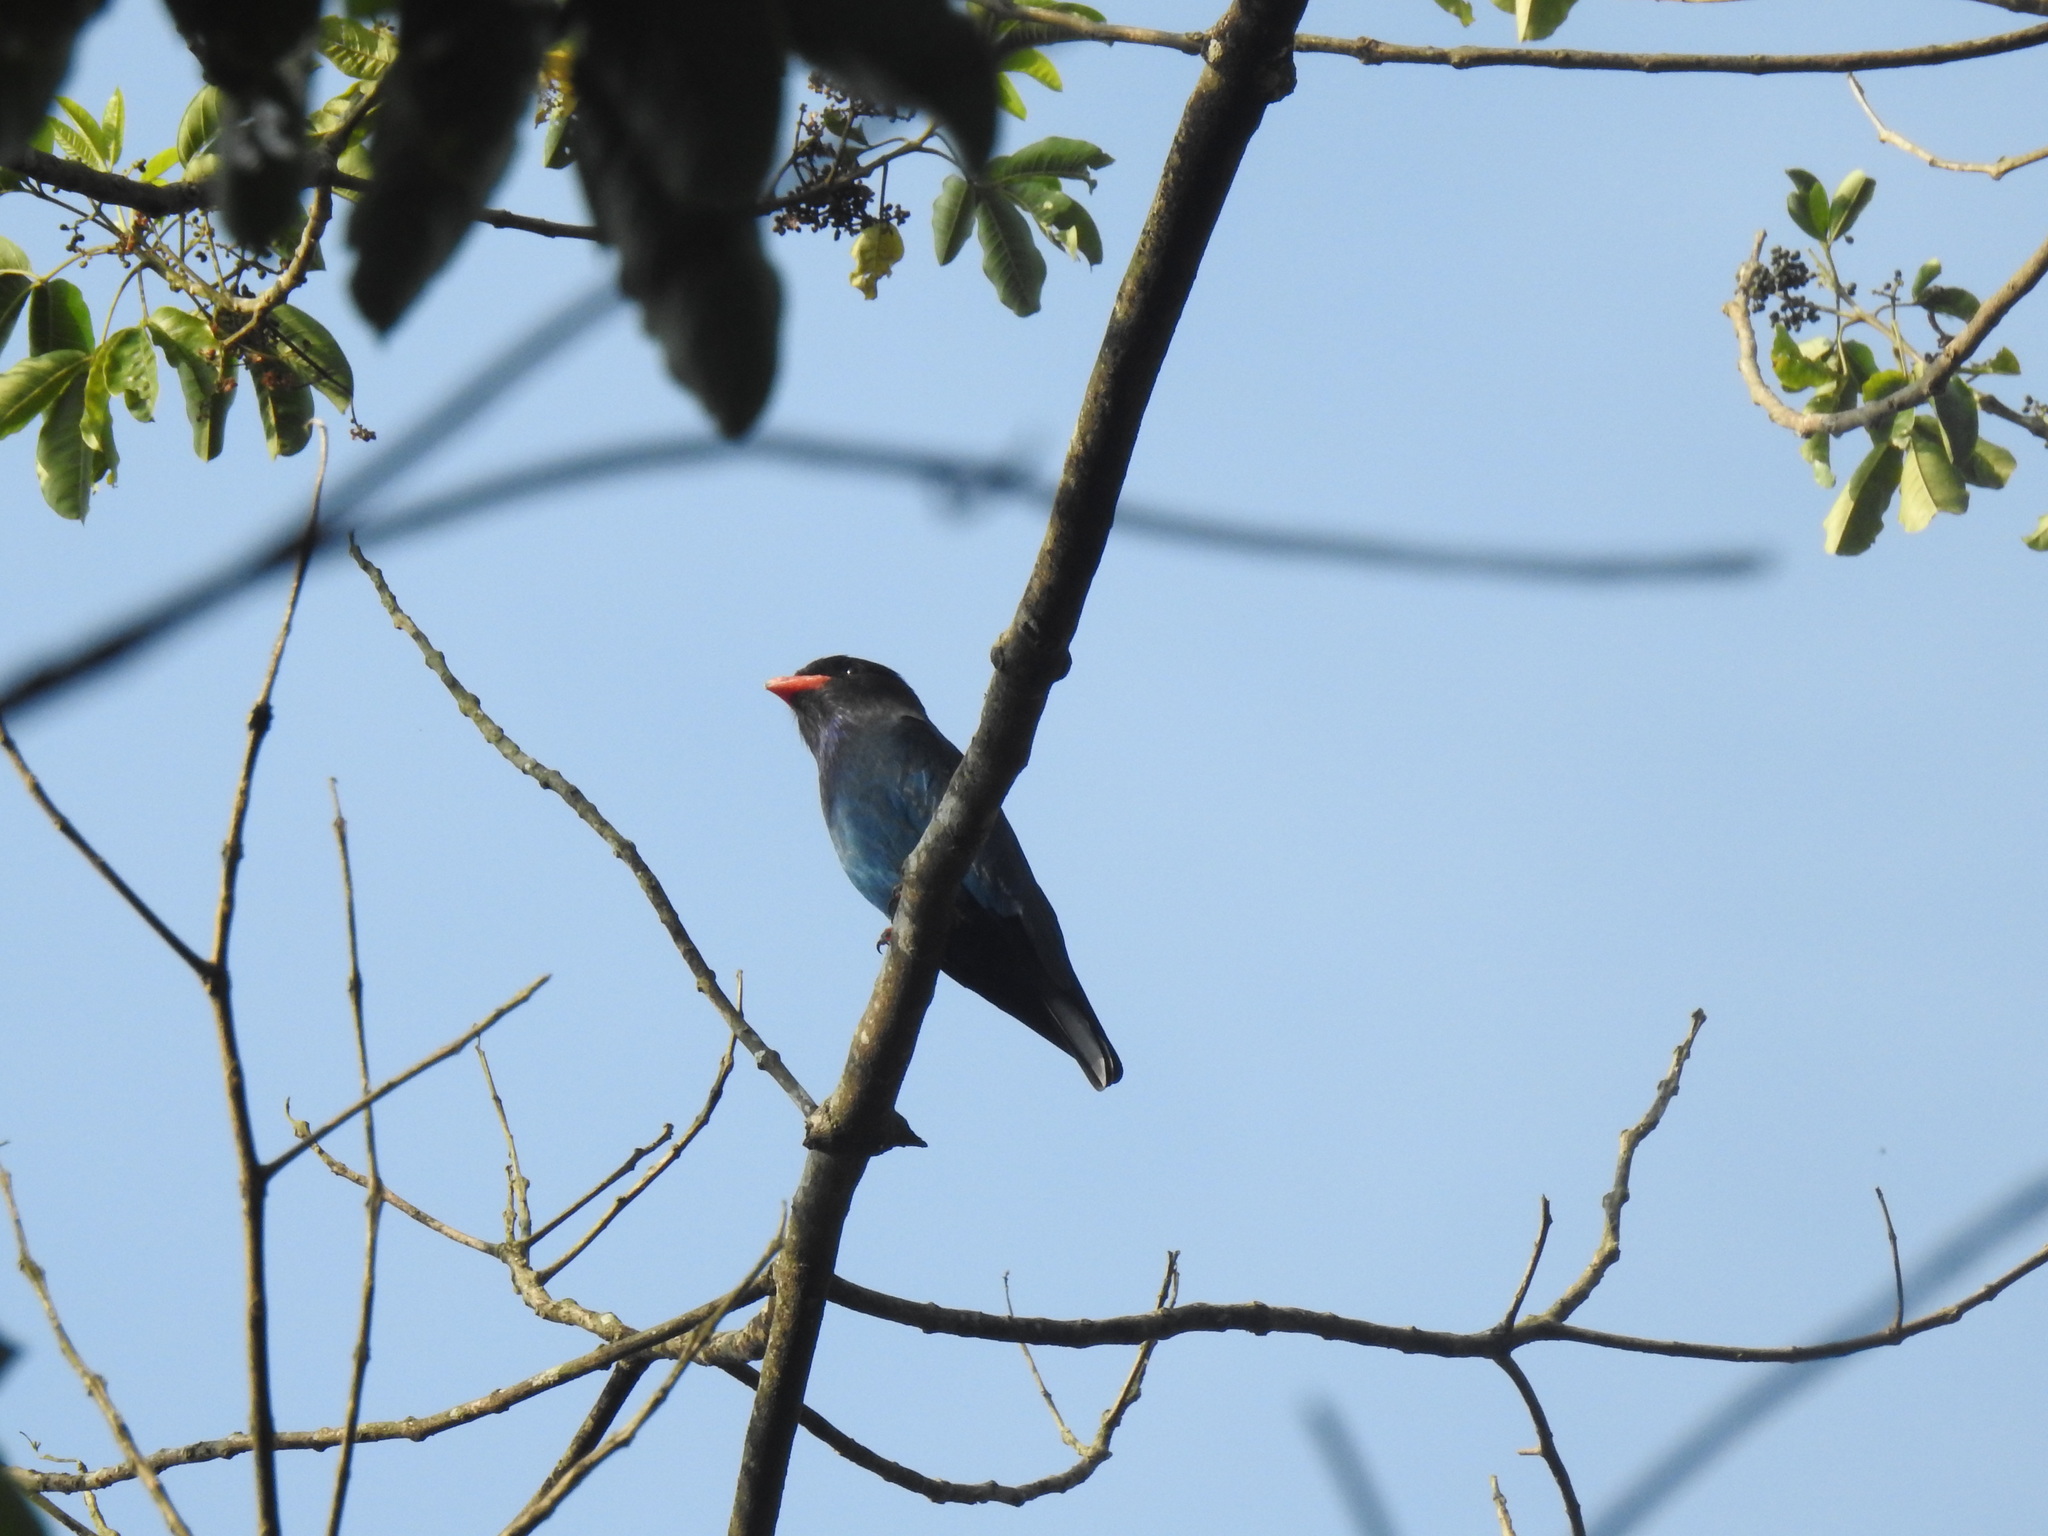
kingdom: Animalia
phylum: Chordata
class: Aves
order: Coraciiformes
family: Coraciidae
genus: Eurystomus
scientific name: Eurystomus orientalis
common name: Oriental dollarbird
